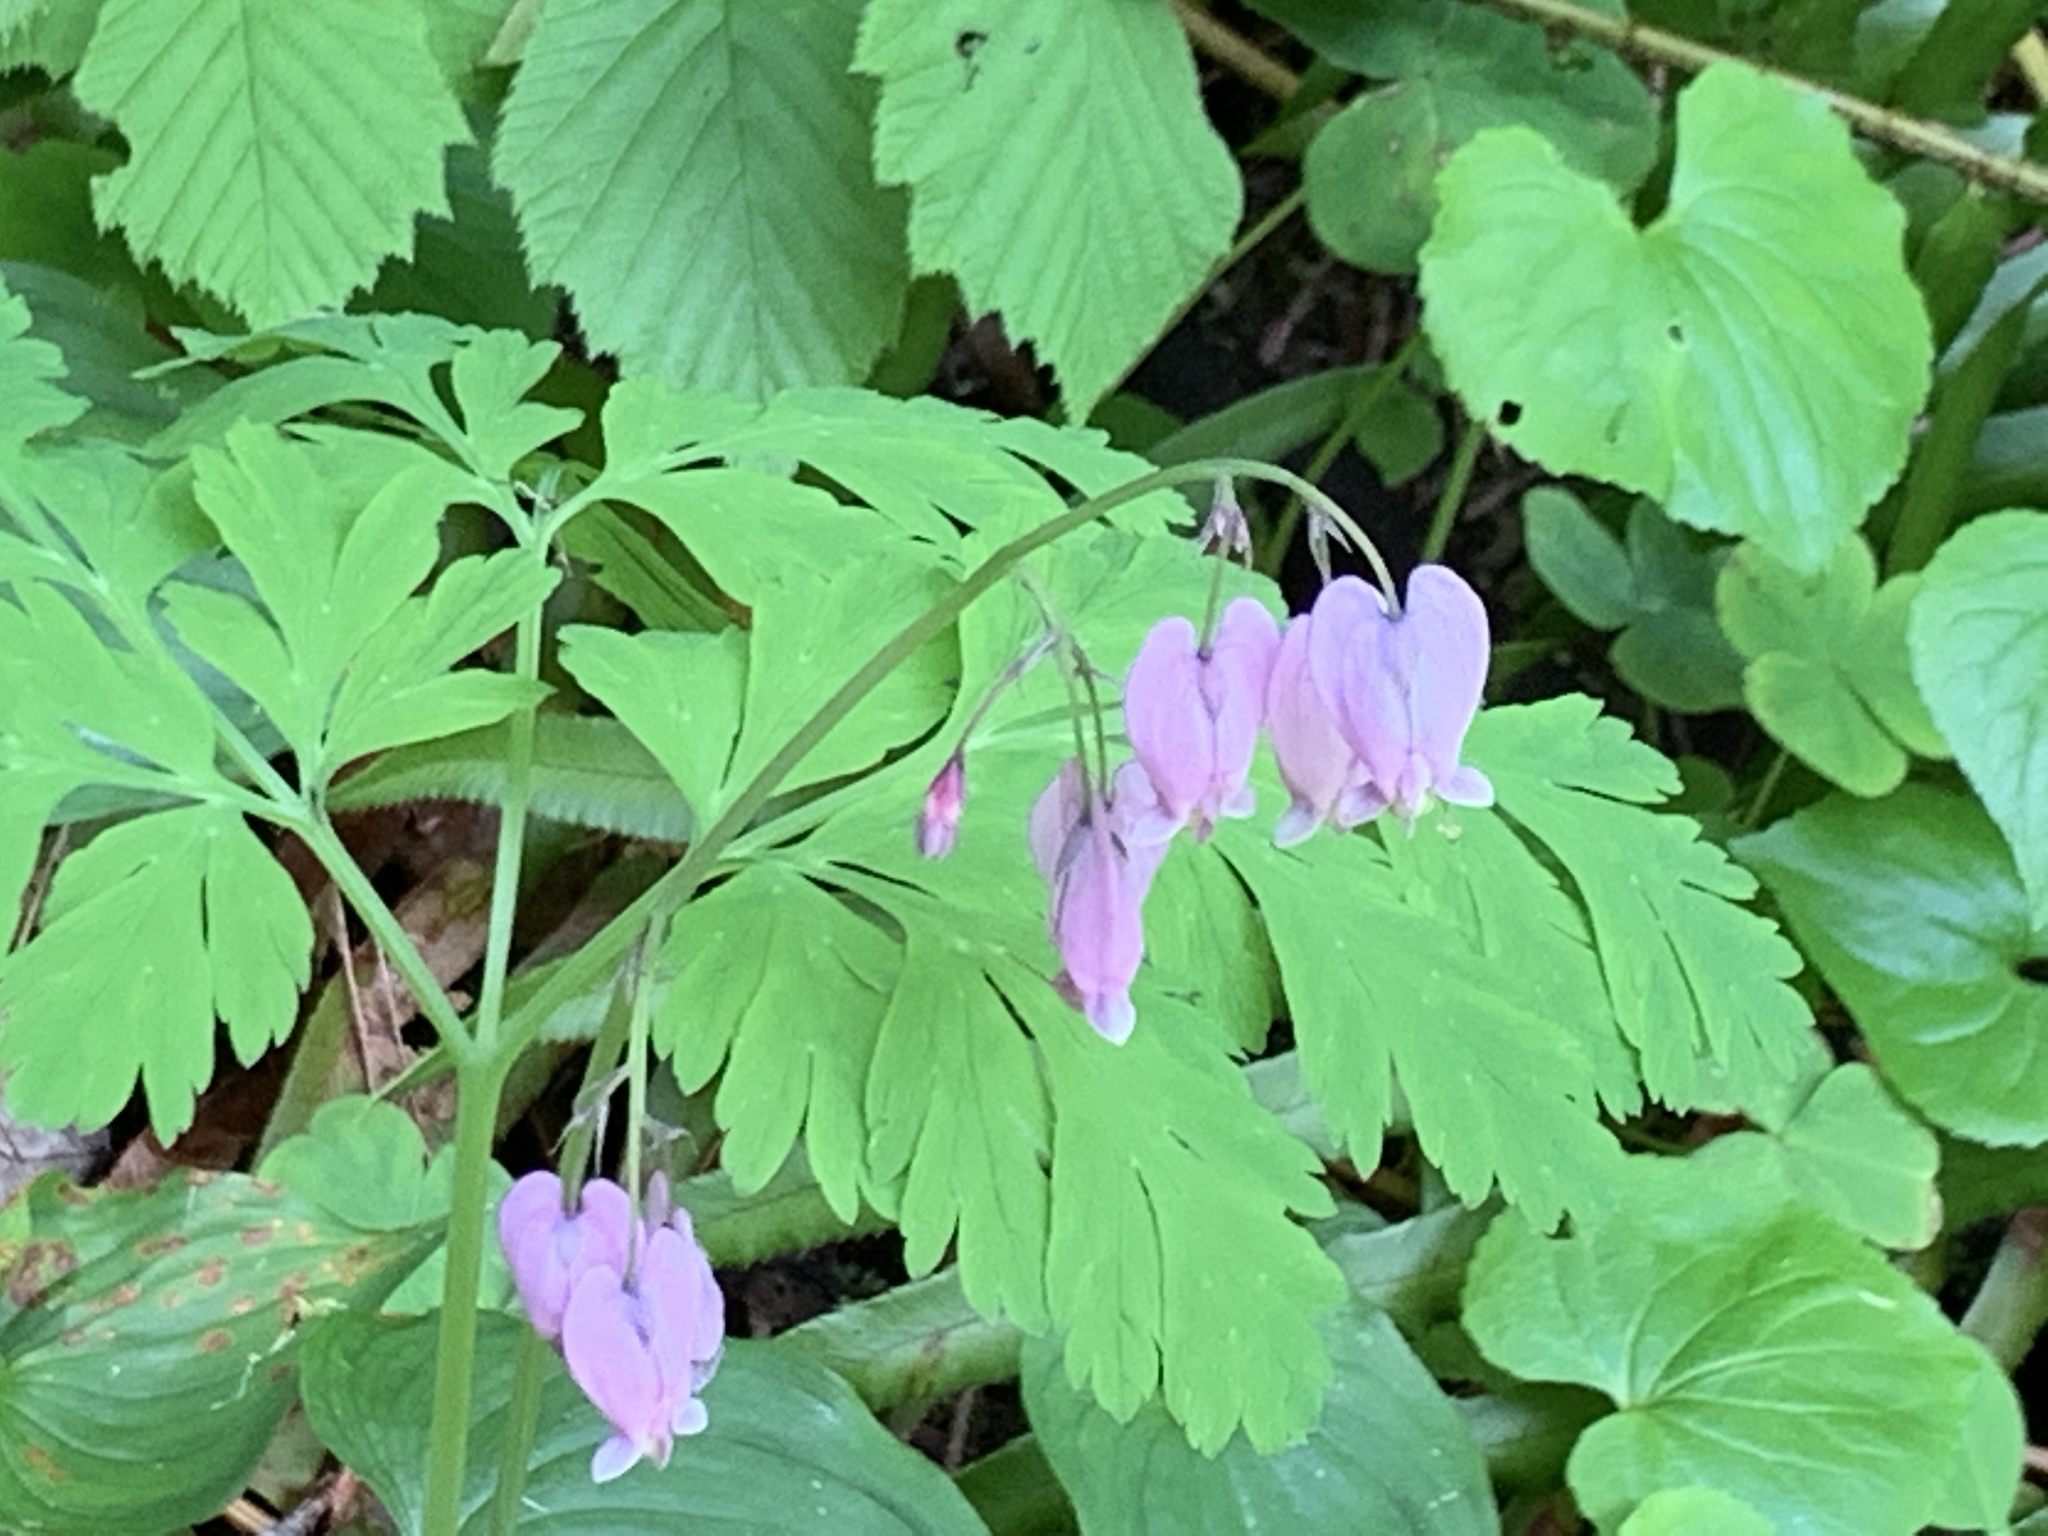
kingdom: Plantae
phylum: Tracheophyta
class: Magnoliopsida
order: Ranunculales
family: Papaveraceae
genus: Dicentra
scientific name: Dicentra formosa
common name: Bleeding-heart
